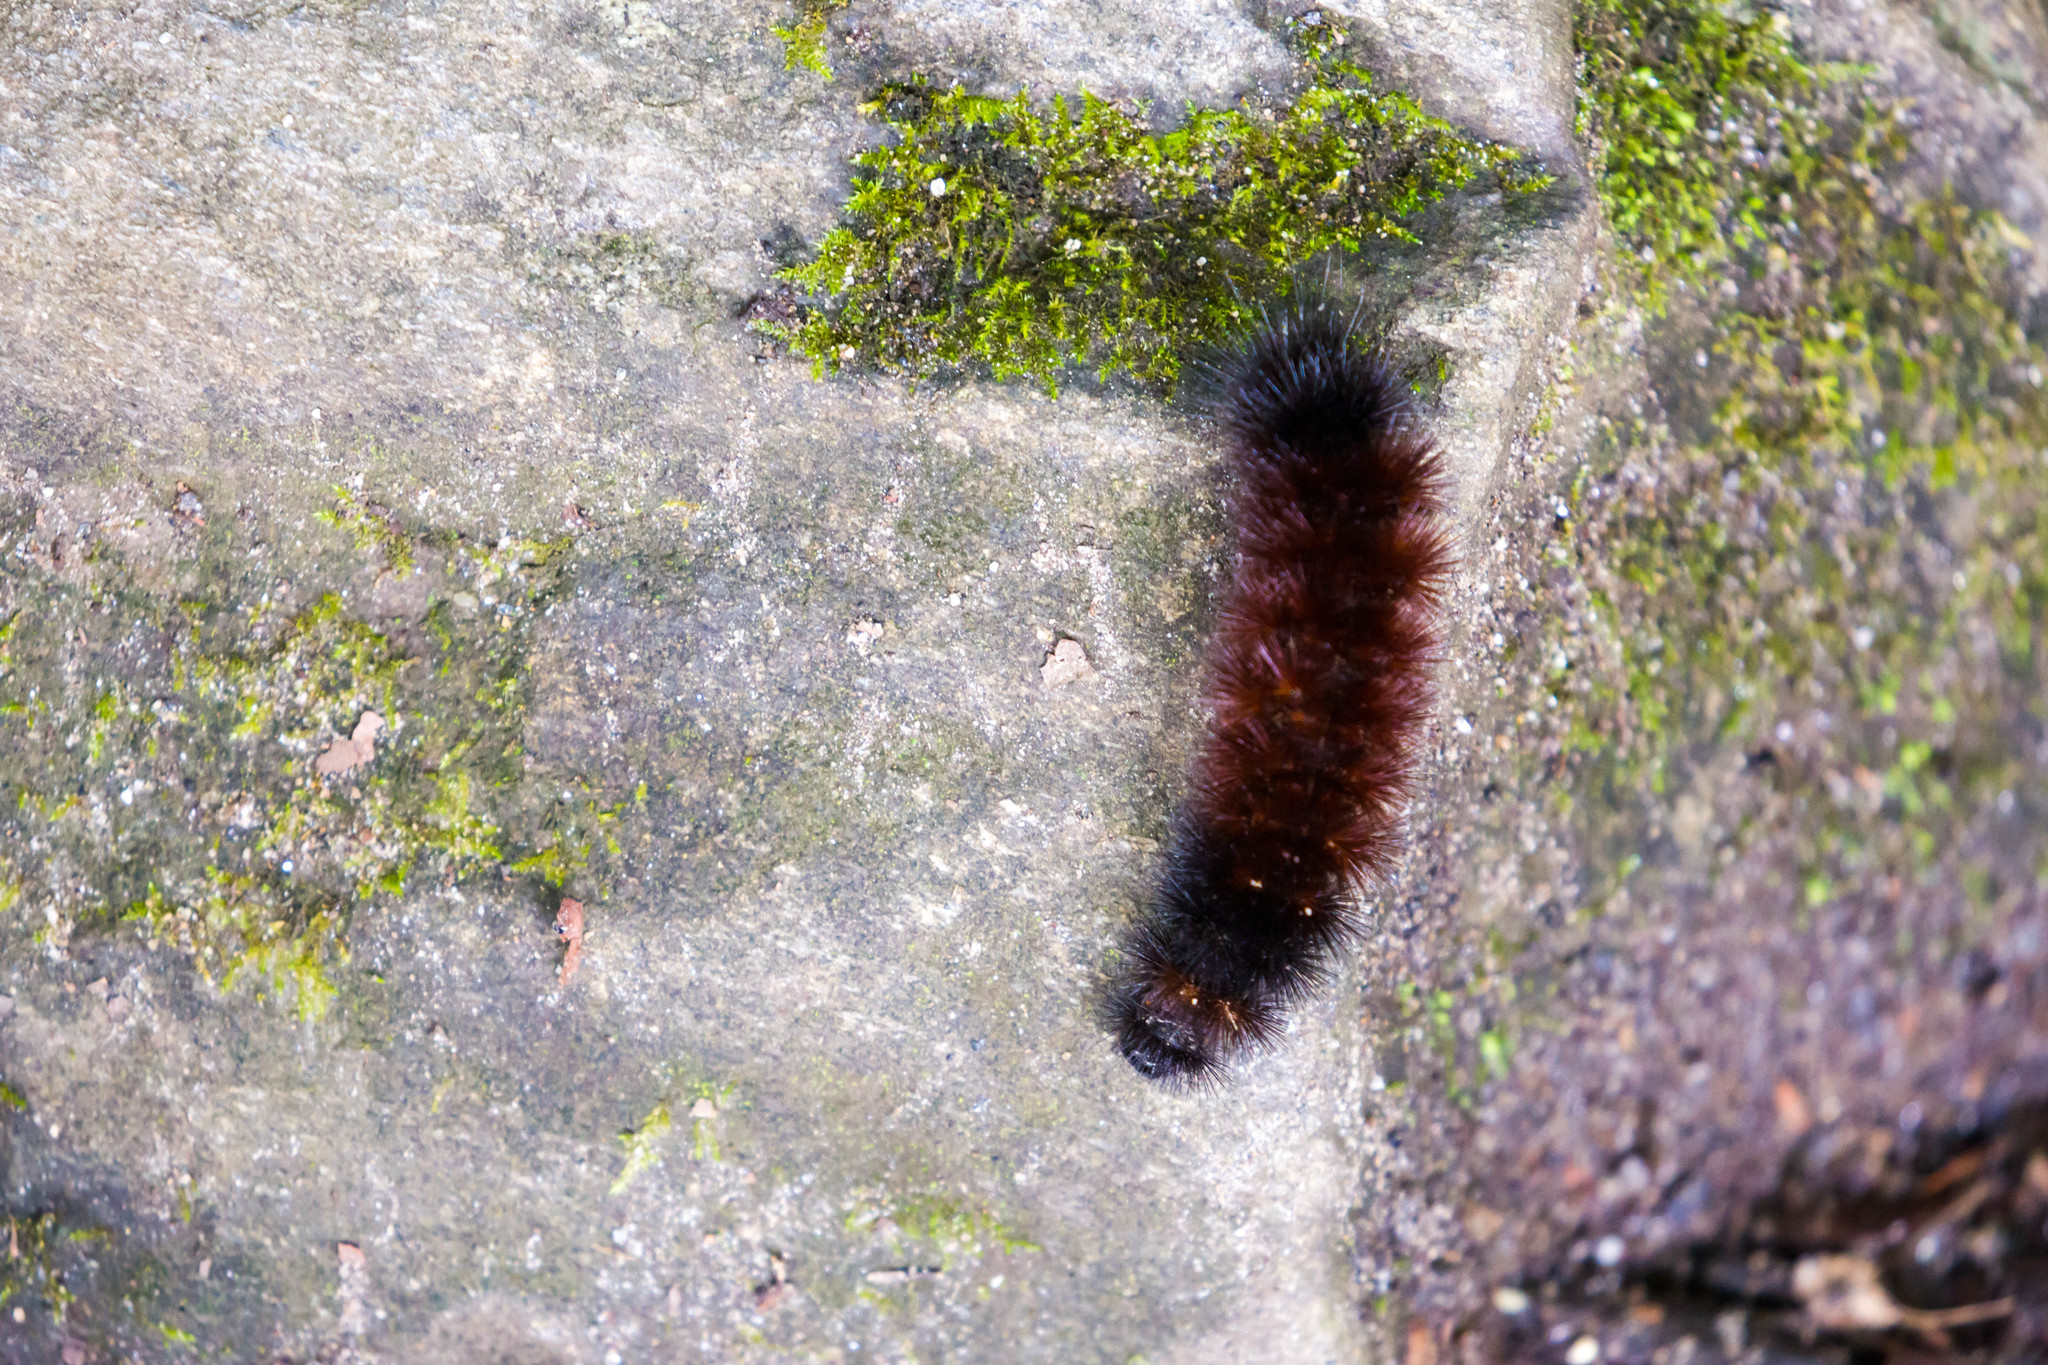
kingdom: Animalia
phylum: Arthropoda
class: Insecta
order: Lepidoptera
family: Erebidae
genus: Pyrrharctia
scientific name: Pyrrharctia isabella
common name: Isabella tiger moth
